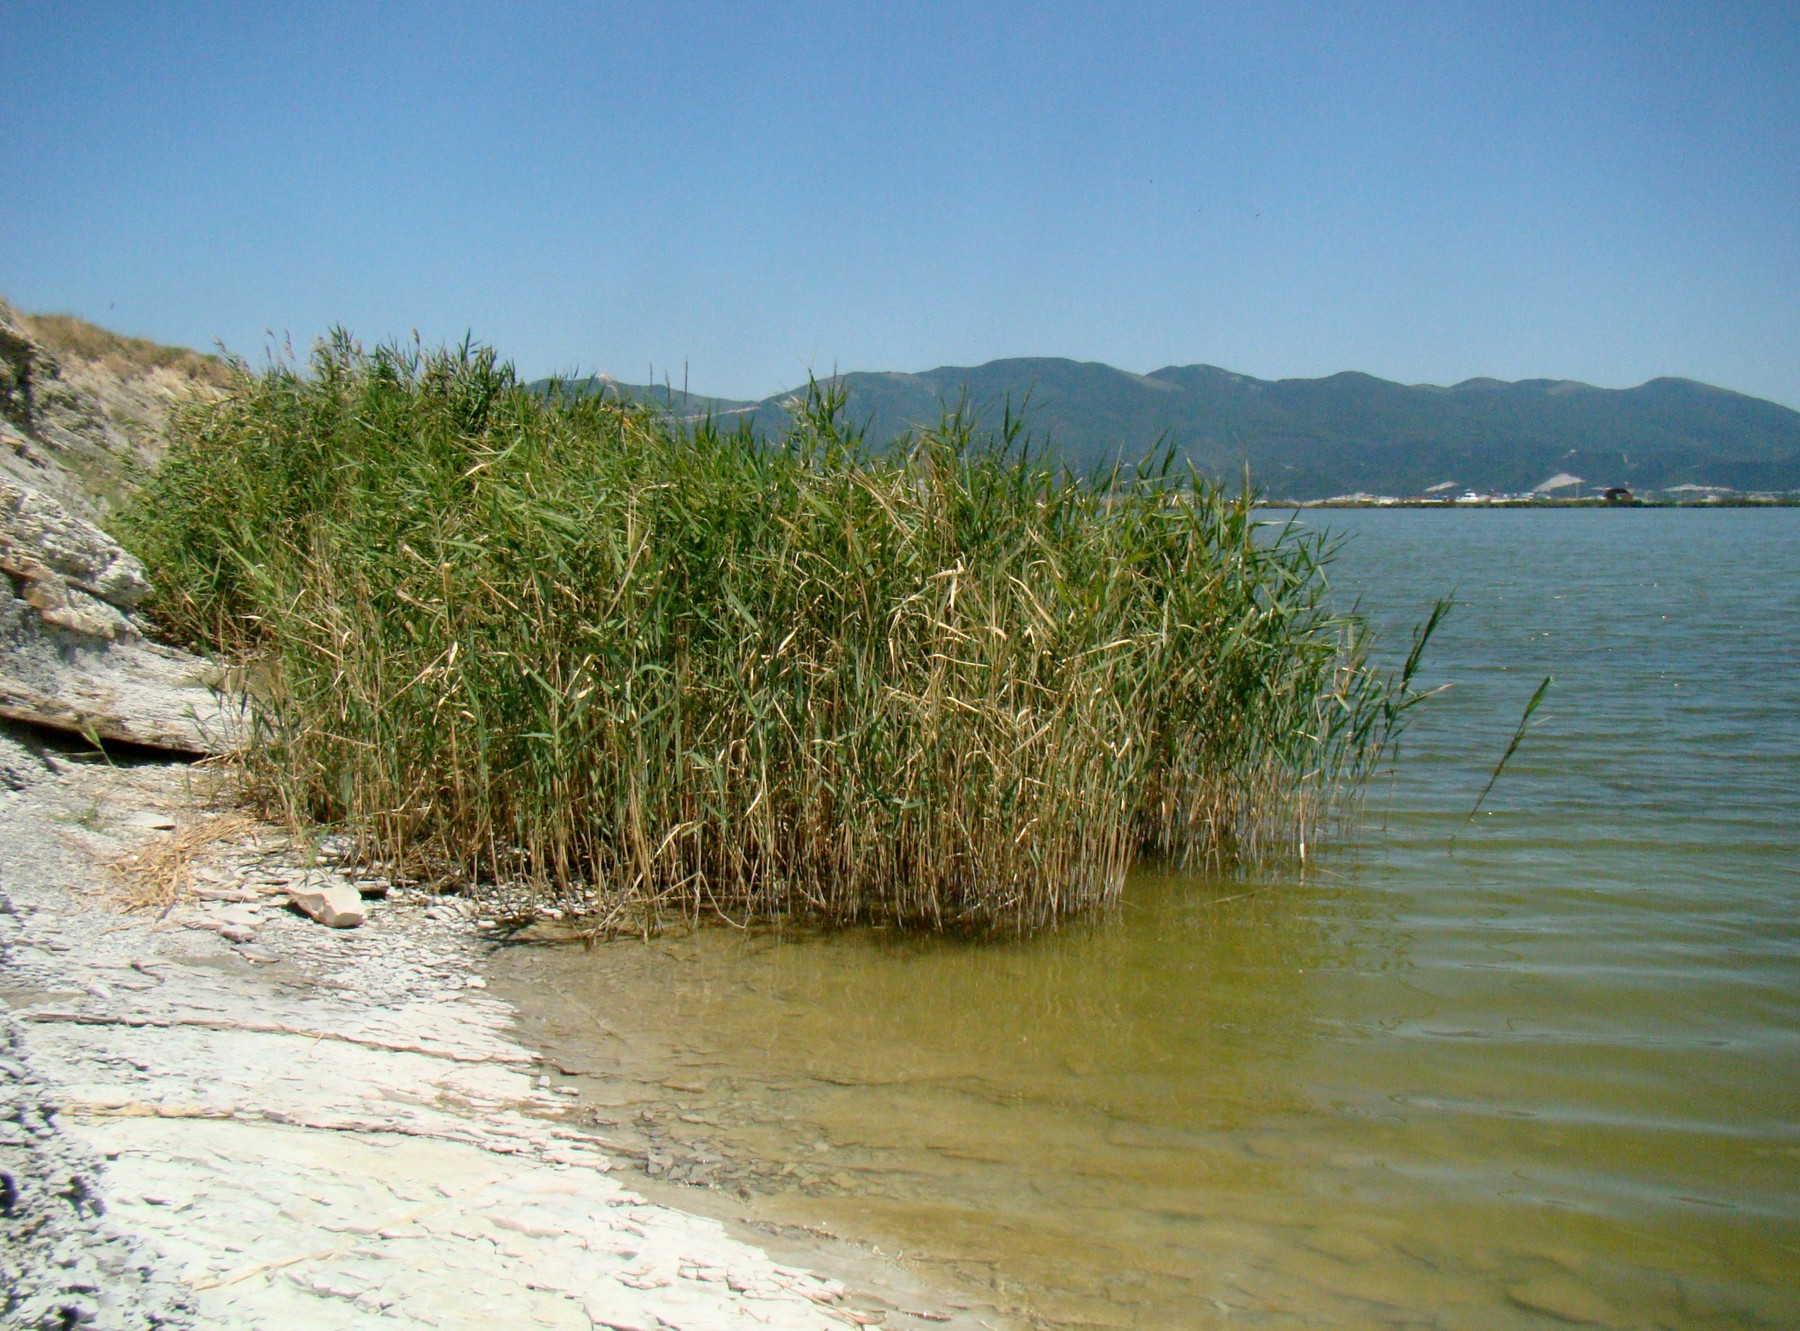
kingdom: Plantae
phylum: Tracheophyta
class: Liliopsida
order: Poales
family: Poaceae
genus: Phragmites
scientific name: Phragmites australis
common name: Common reed
